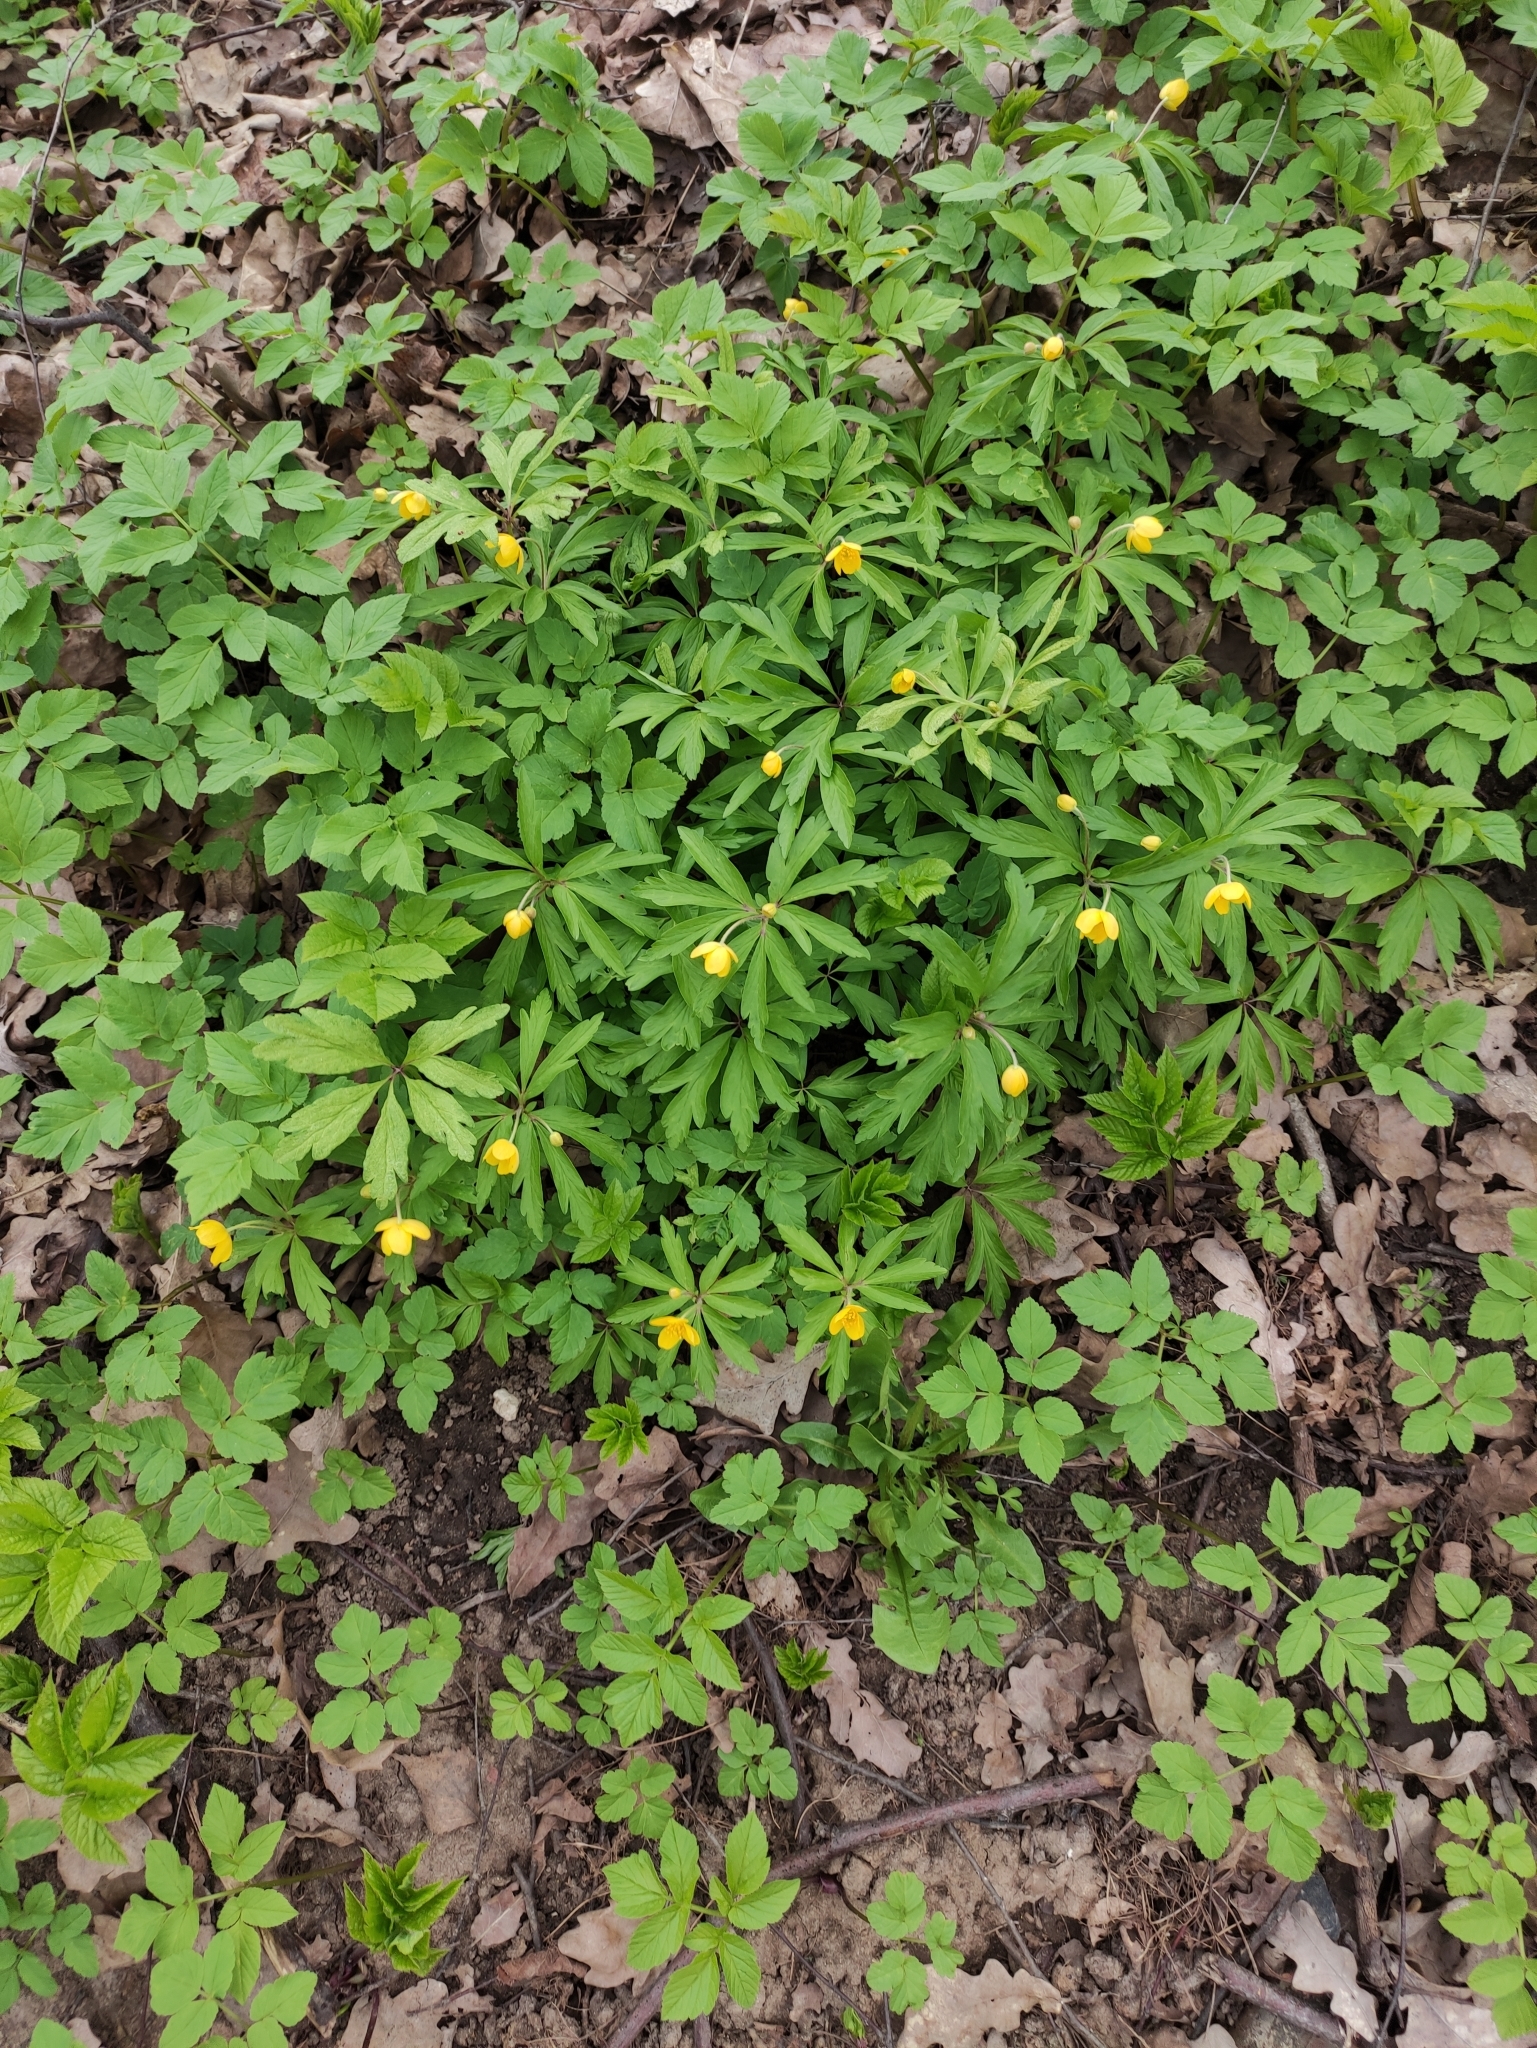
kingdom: Plantae
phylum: Tracheophyta
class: Magnoliopsida
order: Ranunculales
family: Ranunculaceae
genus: Anemone
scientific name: Anemone ranunculoides
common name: Yellow anemone
